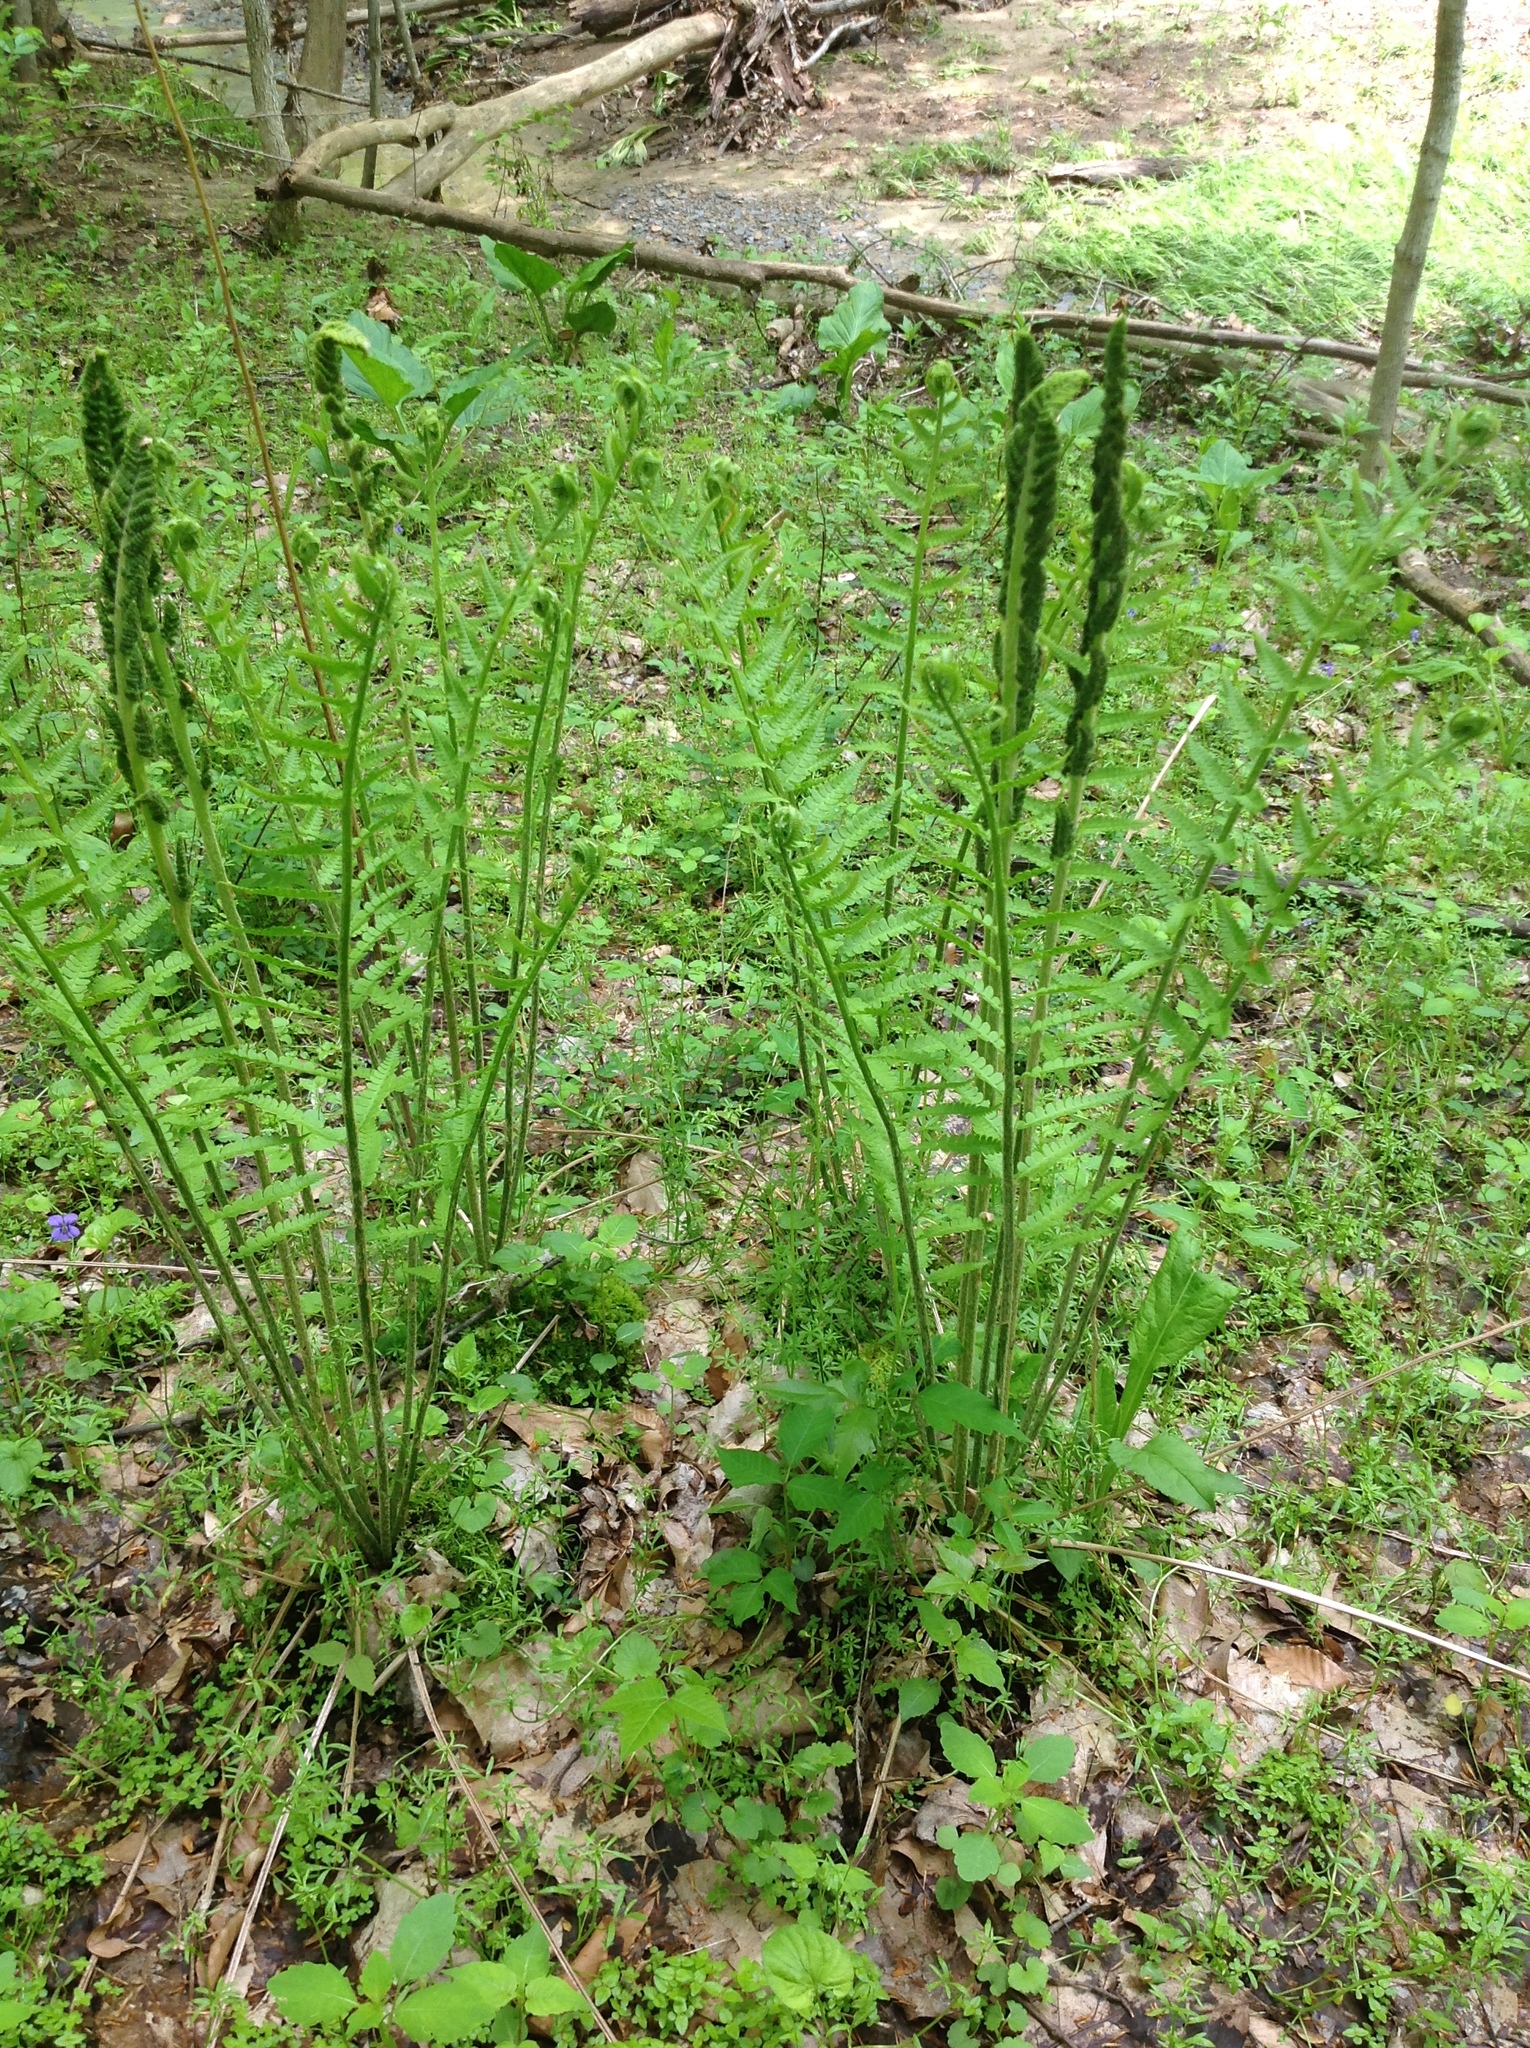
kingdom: Plantae
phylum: Tracheophyta
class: Polypodiopsida
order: Osmundales
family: Osmundaceae
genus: Osmundastrum
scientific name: Osmundastrum cinnamomeum
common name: Cinnamon fern
